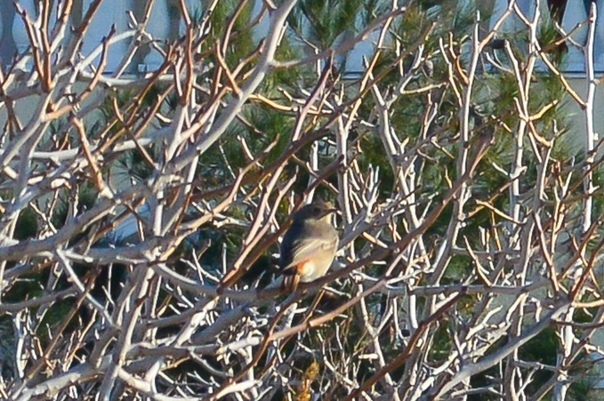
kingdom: Animalia
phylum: Chordata
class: Aves
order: Passeriformes
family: Muscicapidae
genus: Phoenicurus
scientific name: Phoenicurus ochruros
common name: Black redstart
